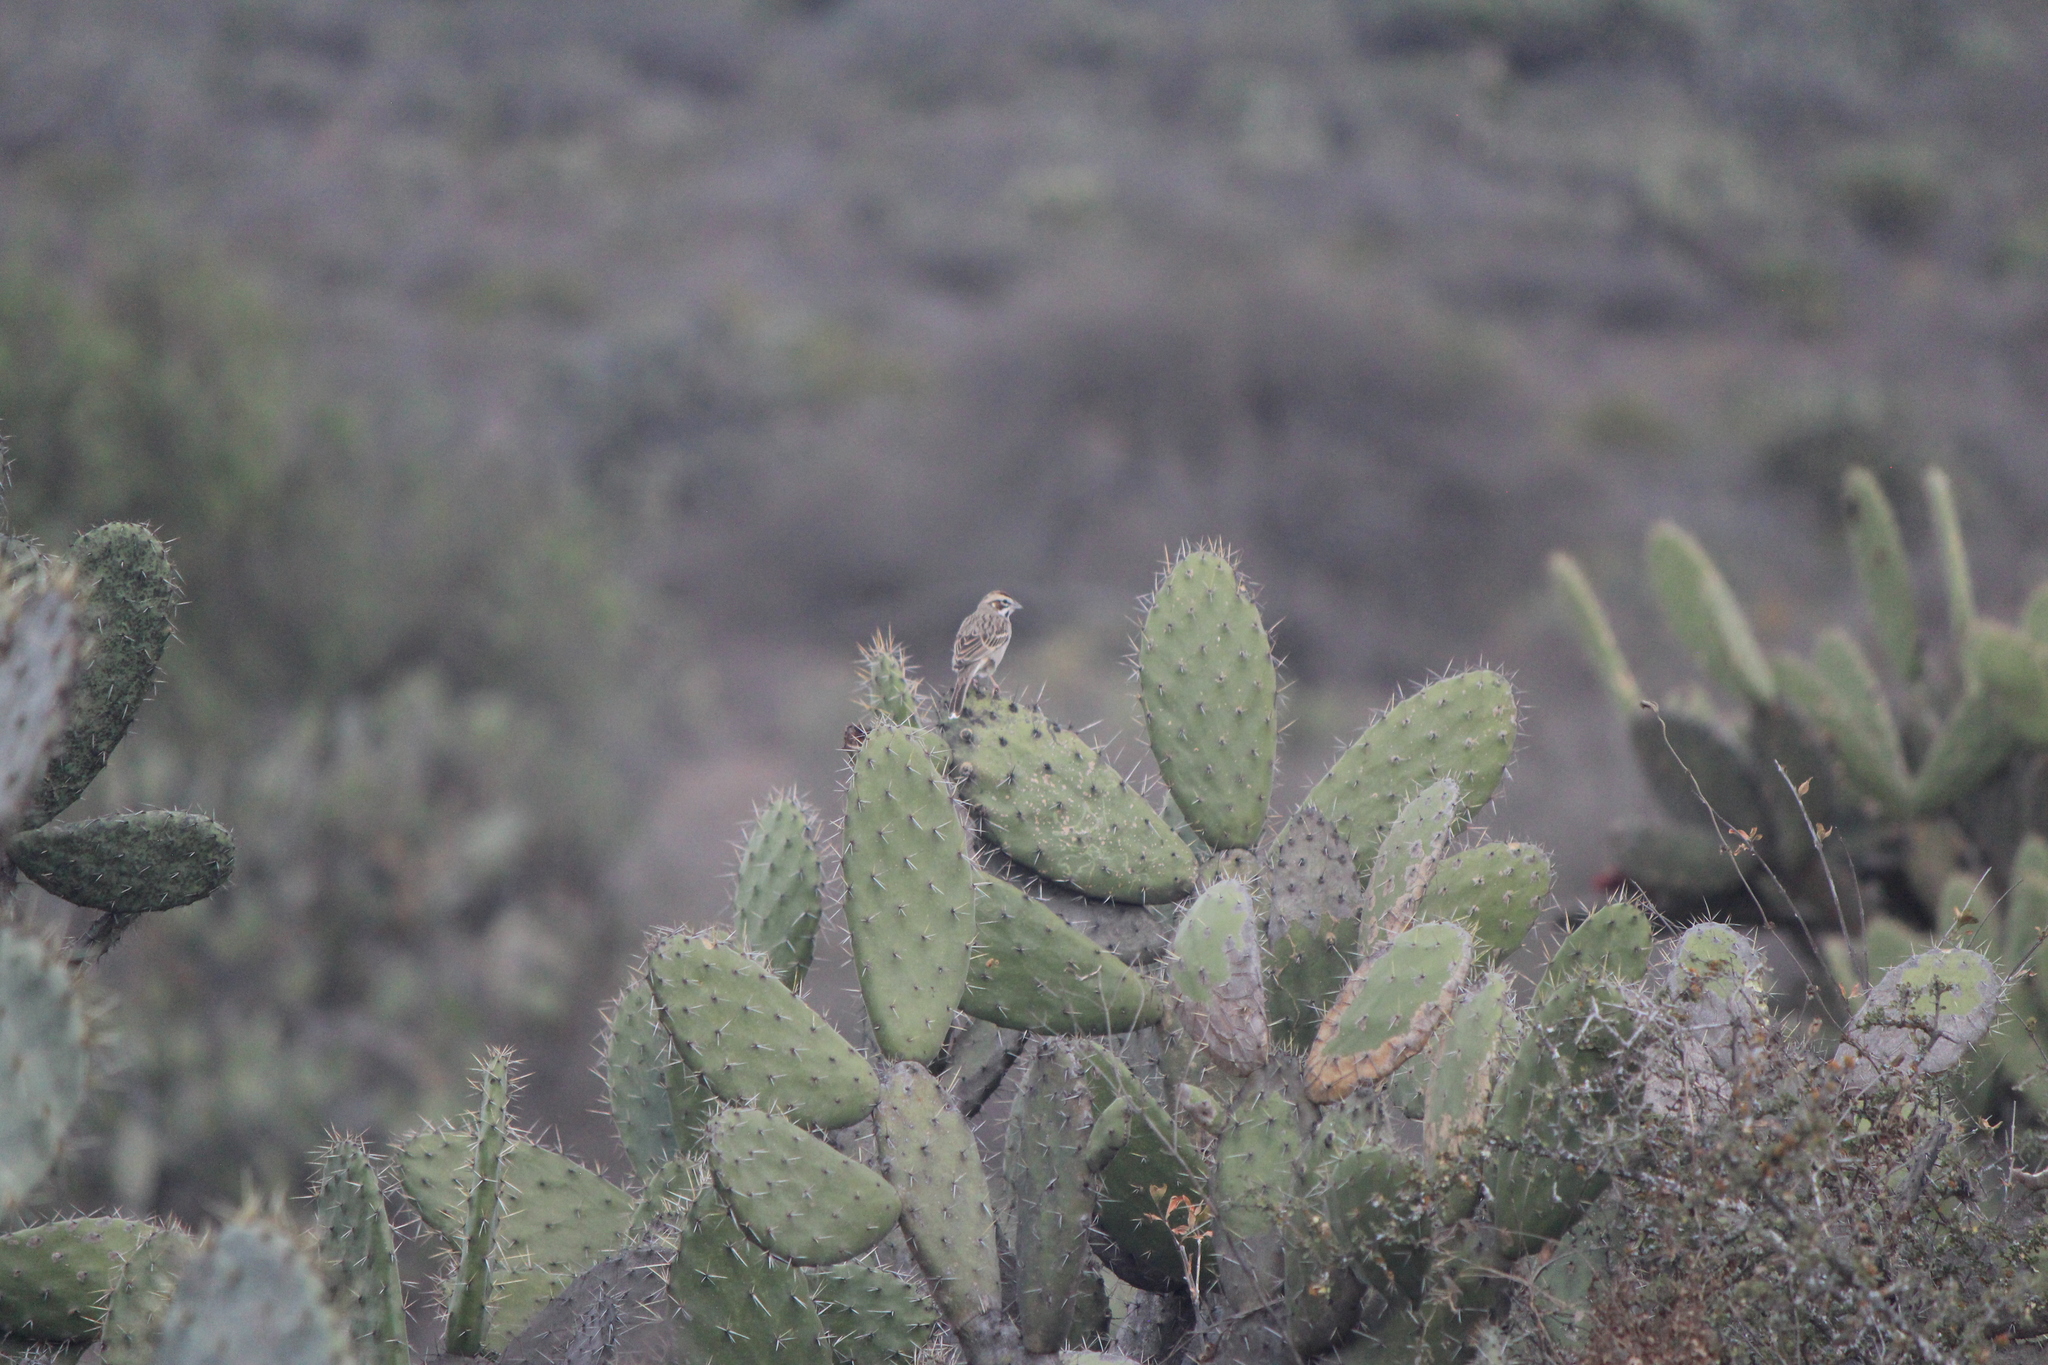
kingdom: Animalia
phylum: Chordata
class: Aves
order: Passeriformes
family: Passerellidae
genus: Chondestes
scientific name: Chondestes grammacus
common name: Lark sparrow
